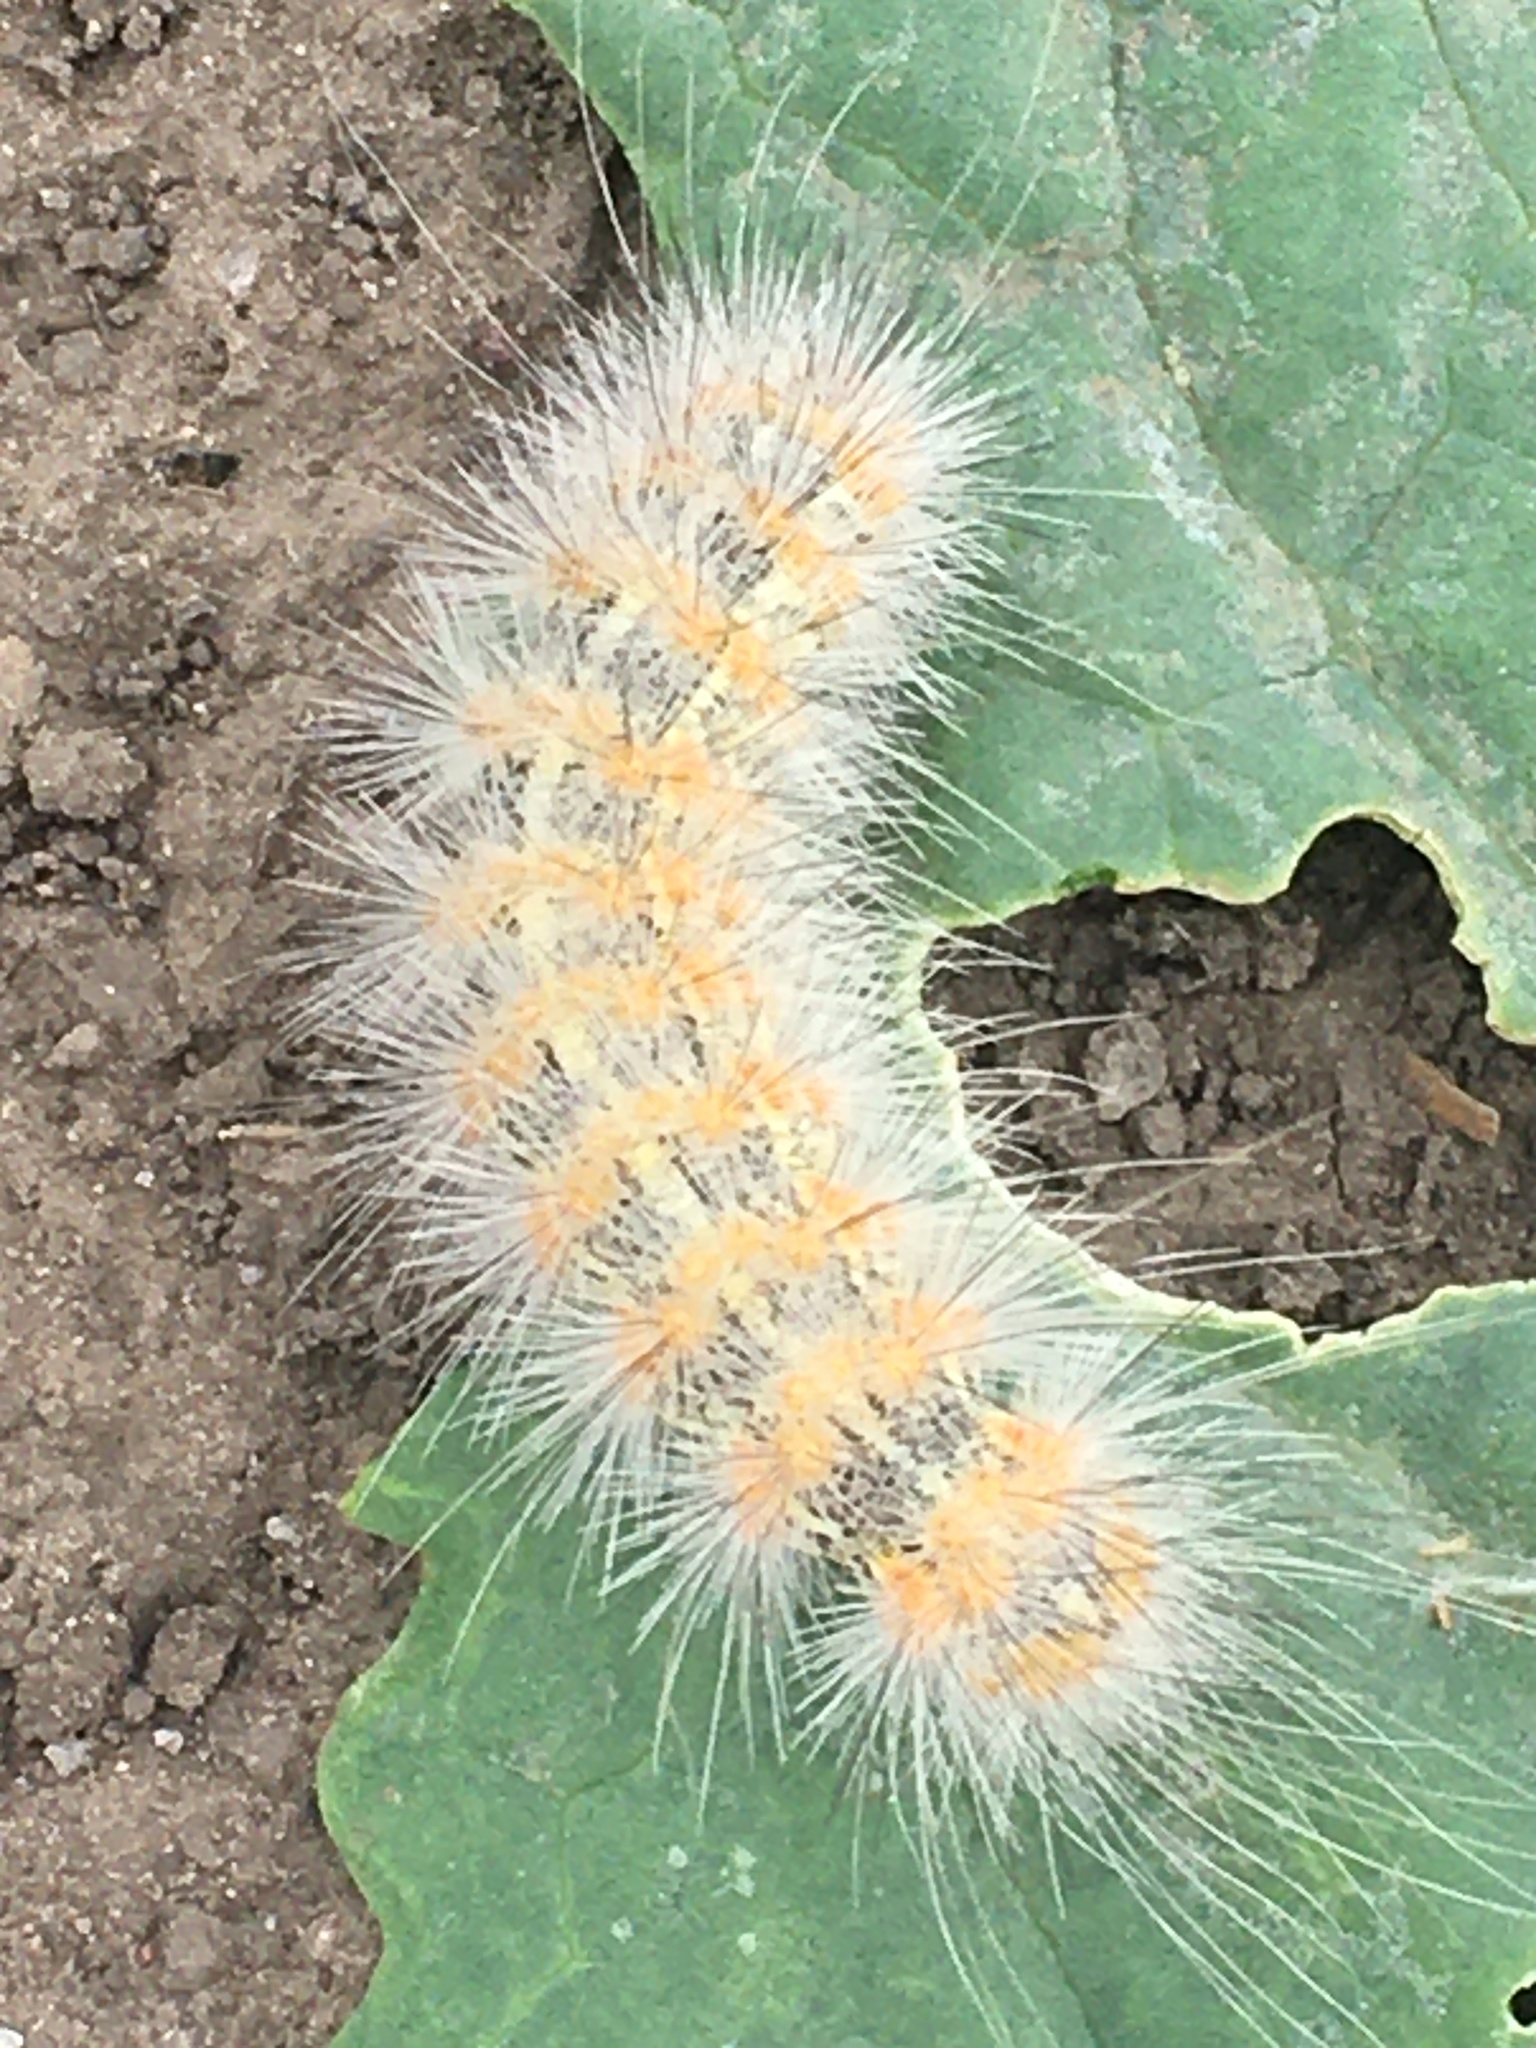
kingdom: Animalia
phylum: Arthropoda
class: Insecta
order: Lepidoptera
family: Erebidae
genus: Estigmene
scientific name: Estigmene acrea
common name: Salt marsh moth
